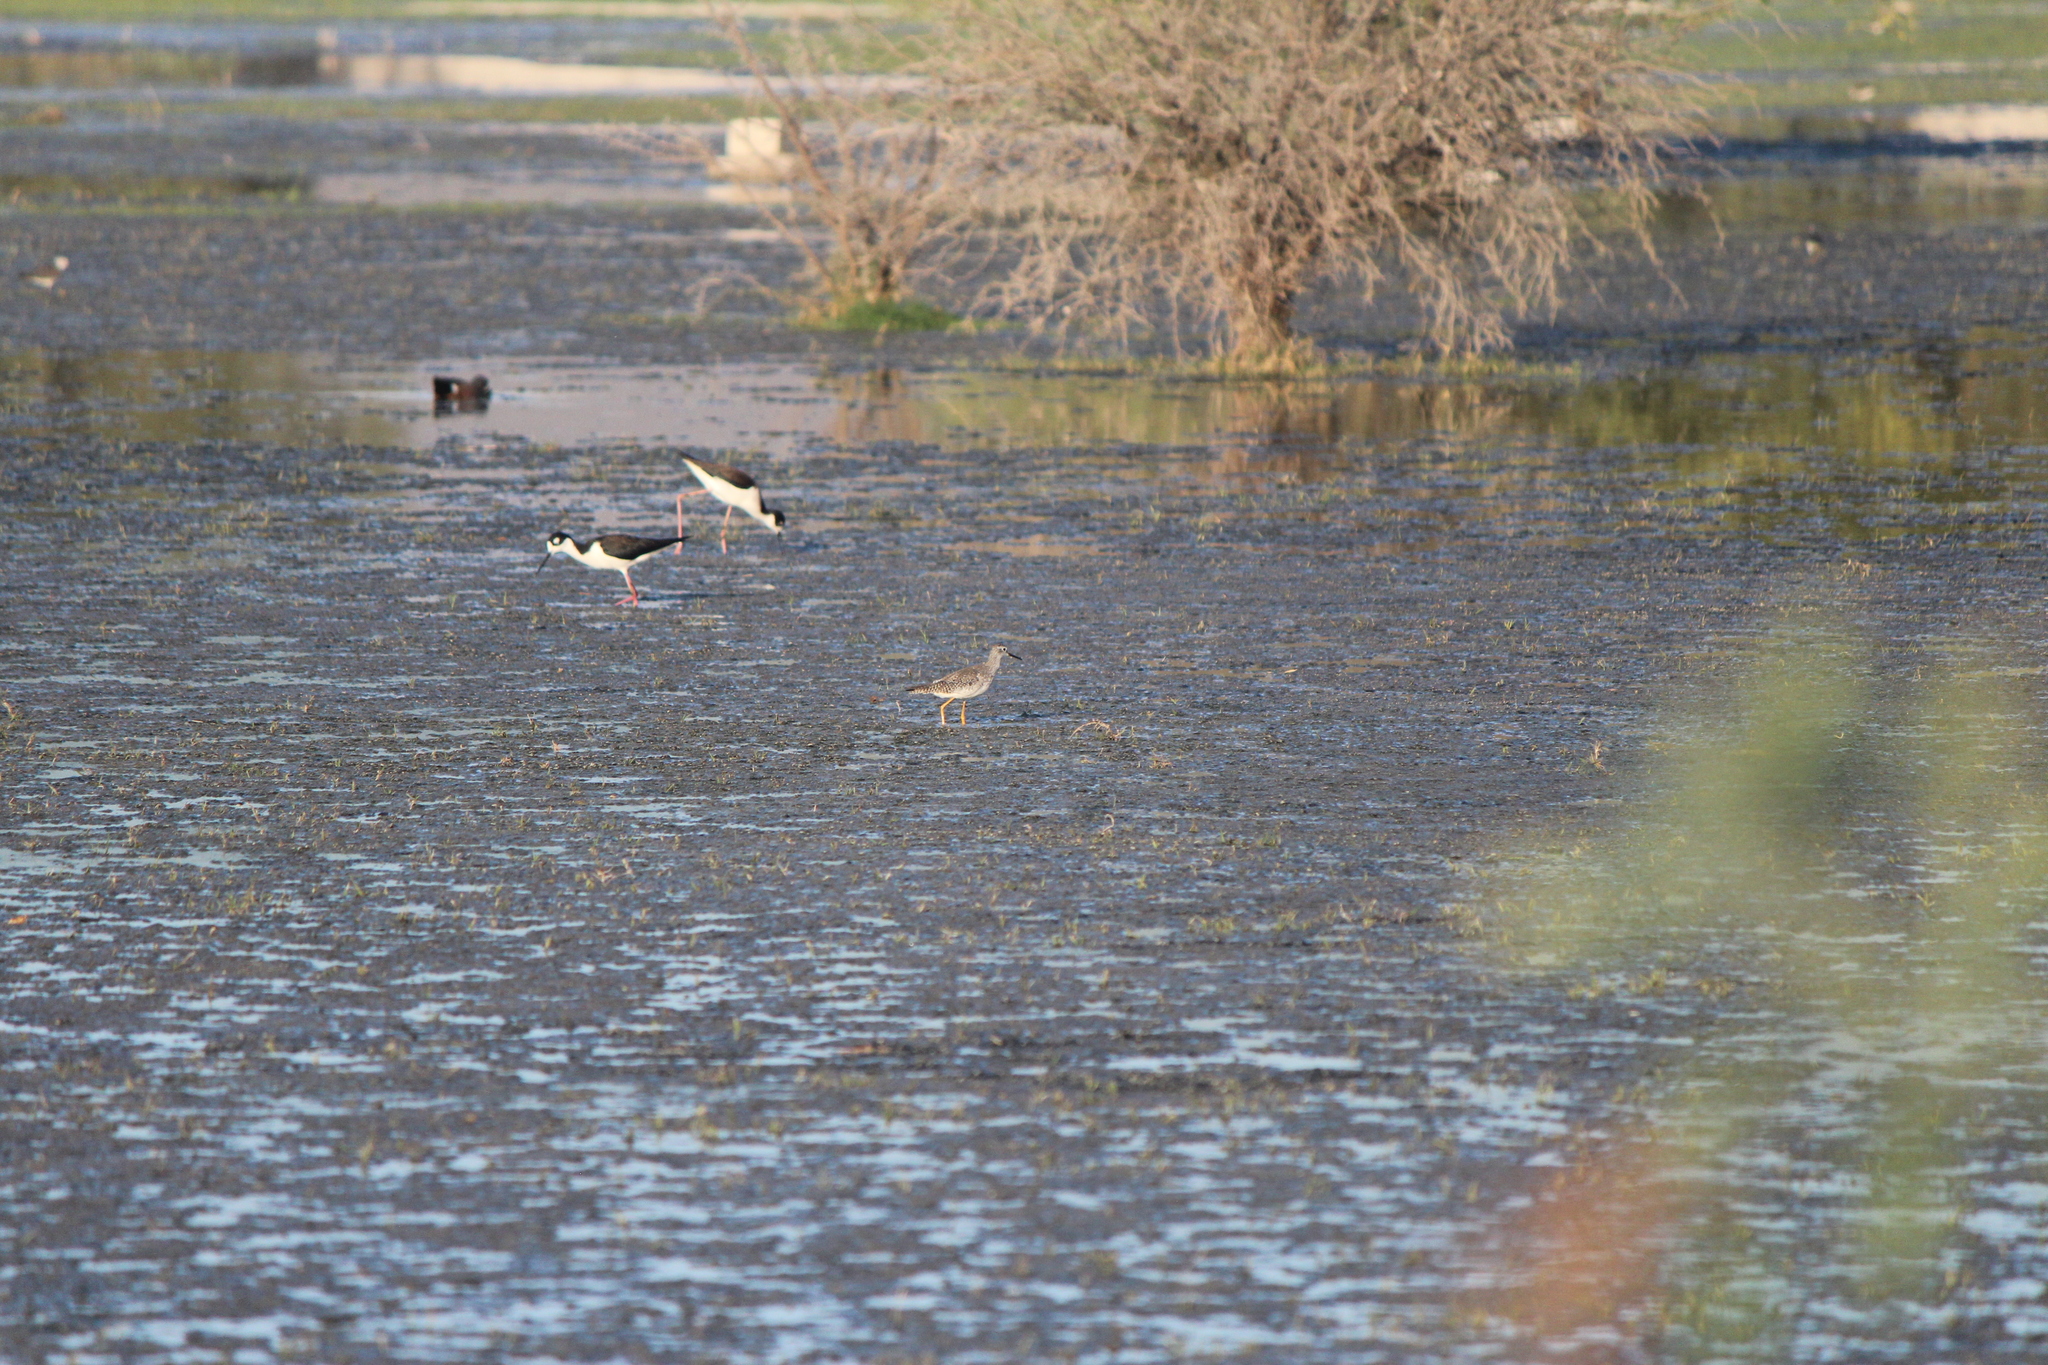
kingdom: Animalia
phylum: Chordata
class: Aves
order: Charadriiformes
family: Scolopacidae
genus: Tringa
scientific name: Tringa flavipes
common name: Lesser yellowlegs
